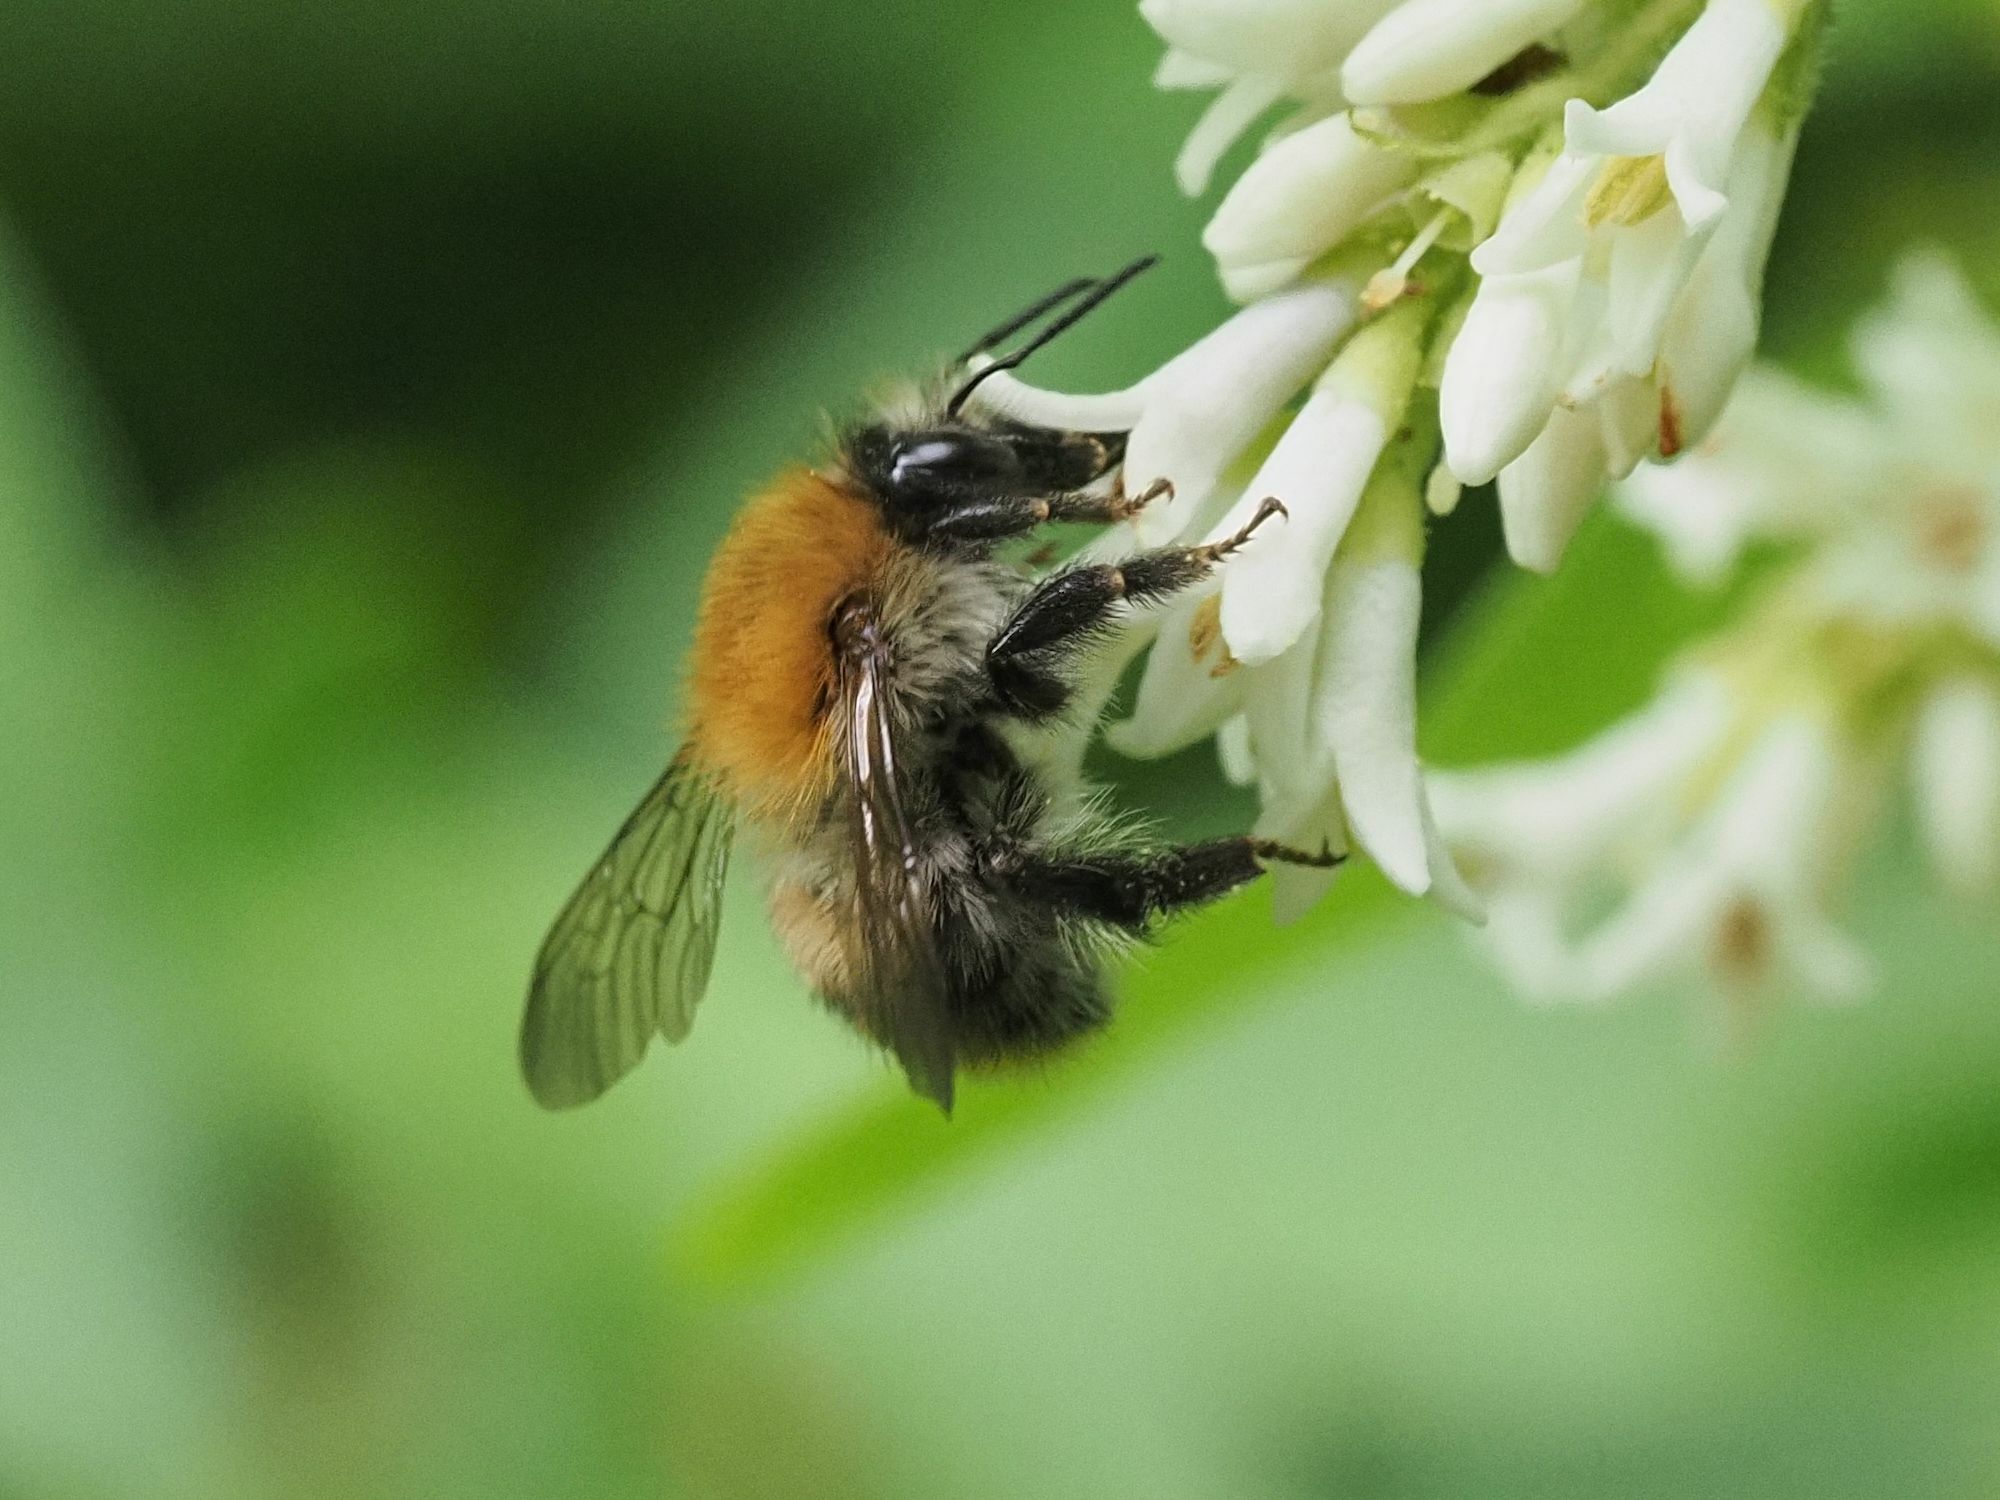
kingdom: Animalia
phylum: Arthropoda
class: Insecta
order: Hymenoptera
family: Apidae
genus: Bombus
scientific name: Bombus pascuorum
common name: Common carder bee
